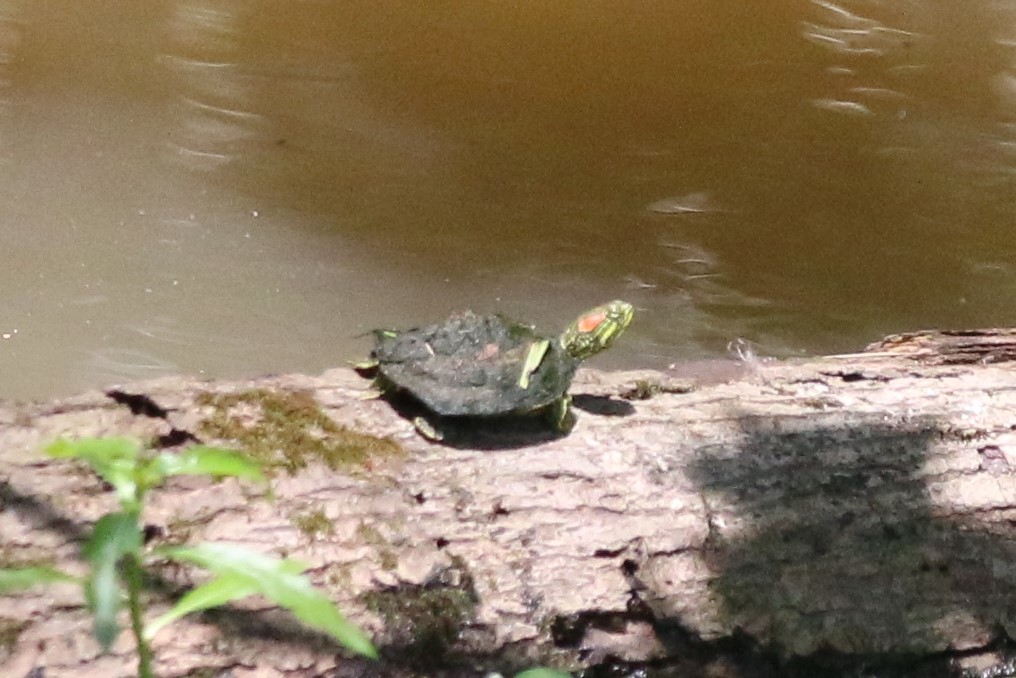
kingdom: Animalia
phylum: Chordata
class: Testudines
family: Emydidae
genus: Trachemys
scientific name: Trachemys scripta
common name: Slider
